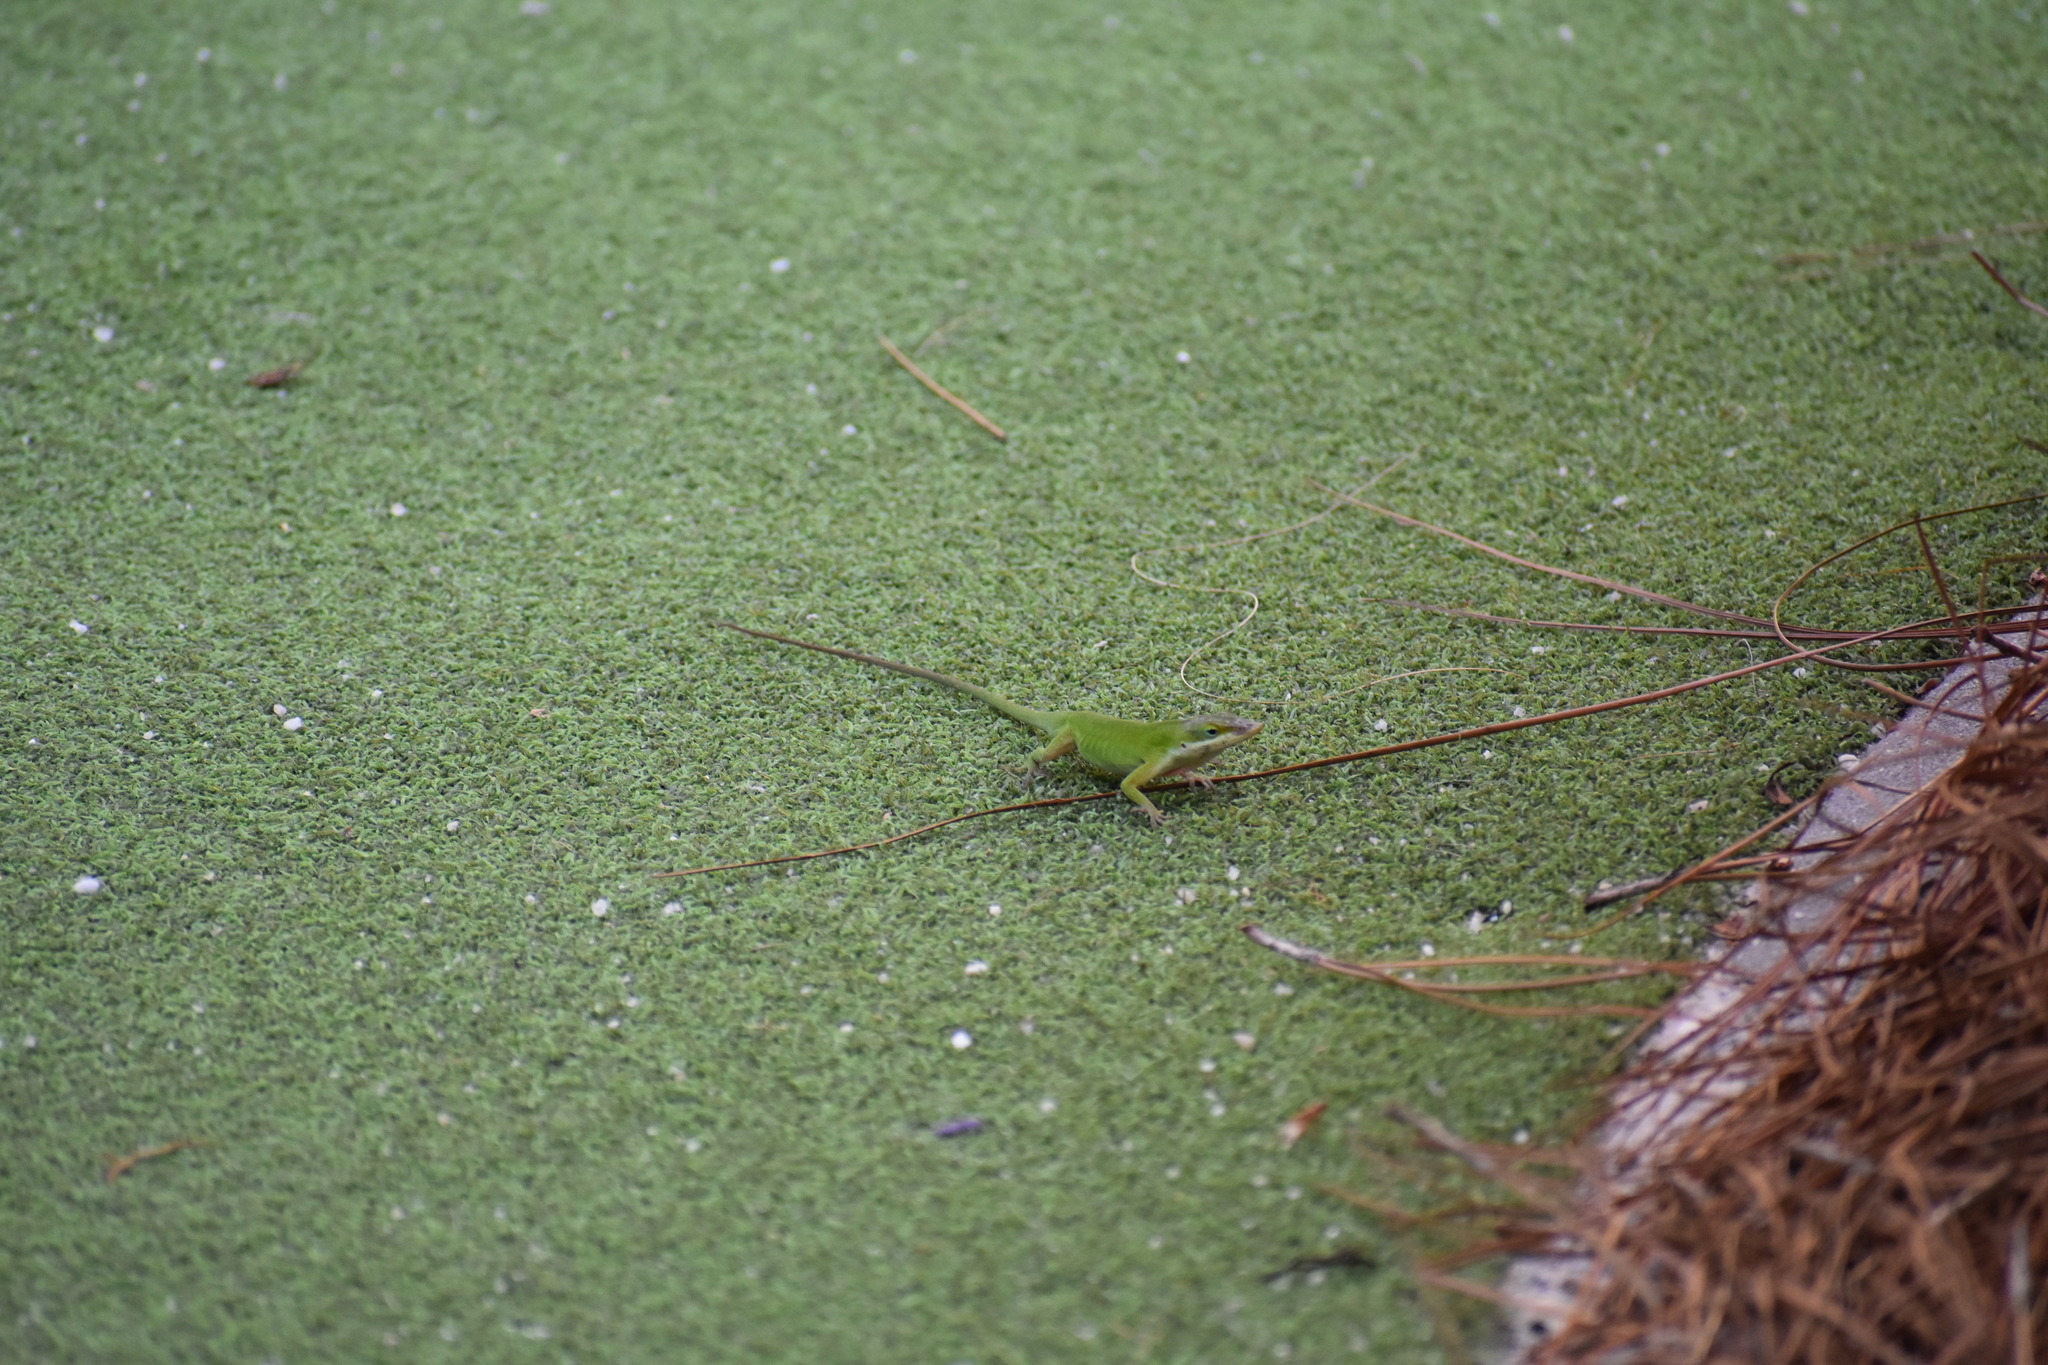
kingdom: Animalia
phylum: Chordata
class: Squamata
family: Dactyloidae
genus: Anolis
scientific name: Anolis carolinensis
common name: Green anole
